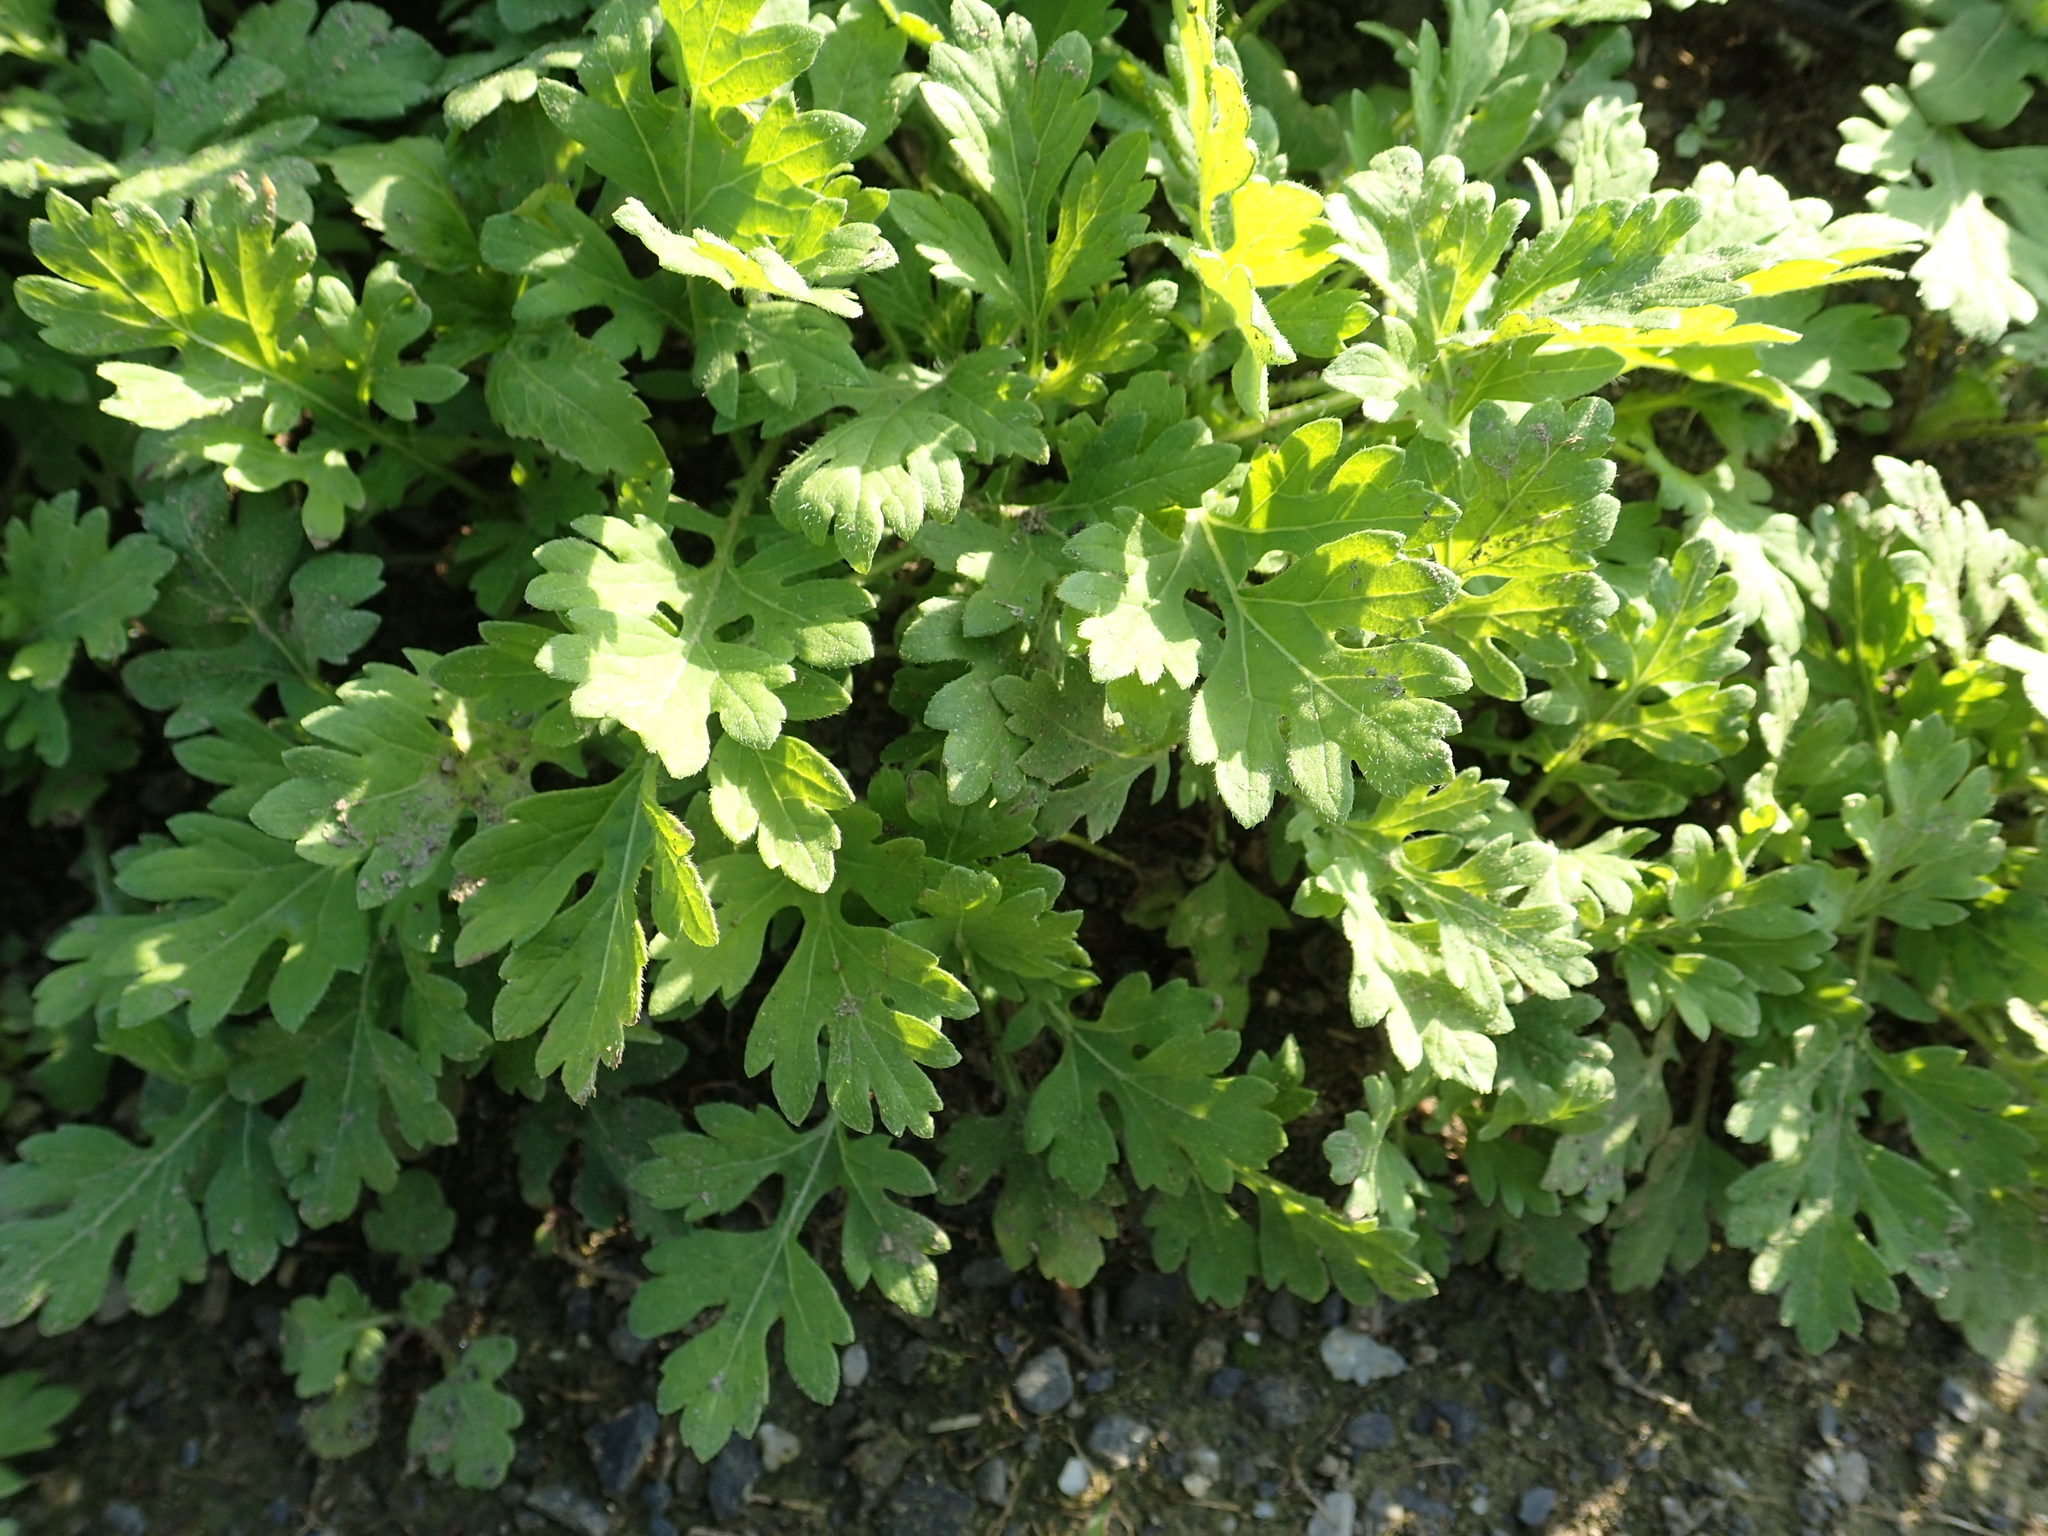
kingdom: Plantae
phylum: Tracheophyta
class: Magnoliopsida
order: Asterales
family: Asteraceae
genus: Artemisia
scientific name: Artemisia indica
